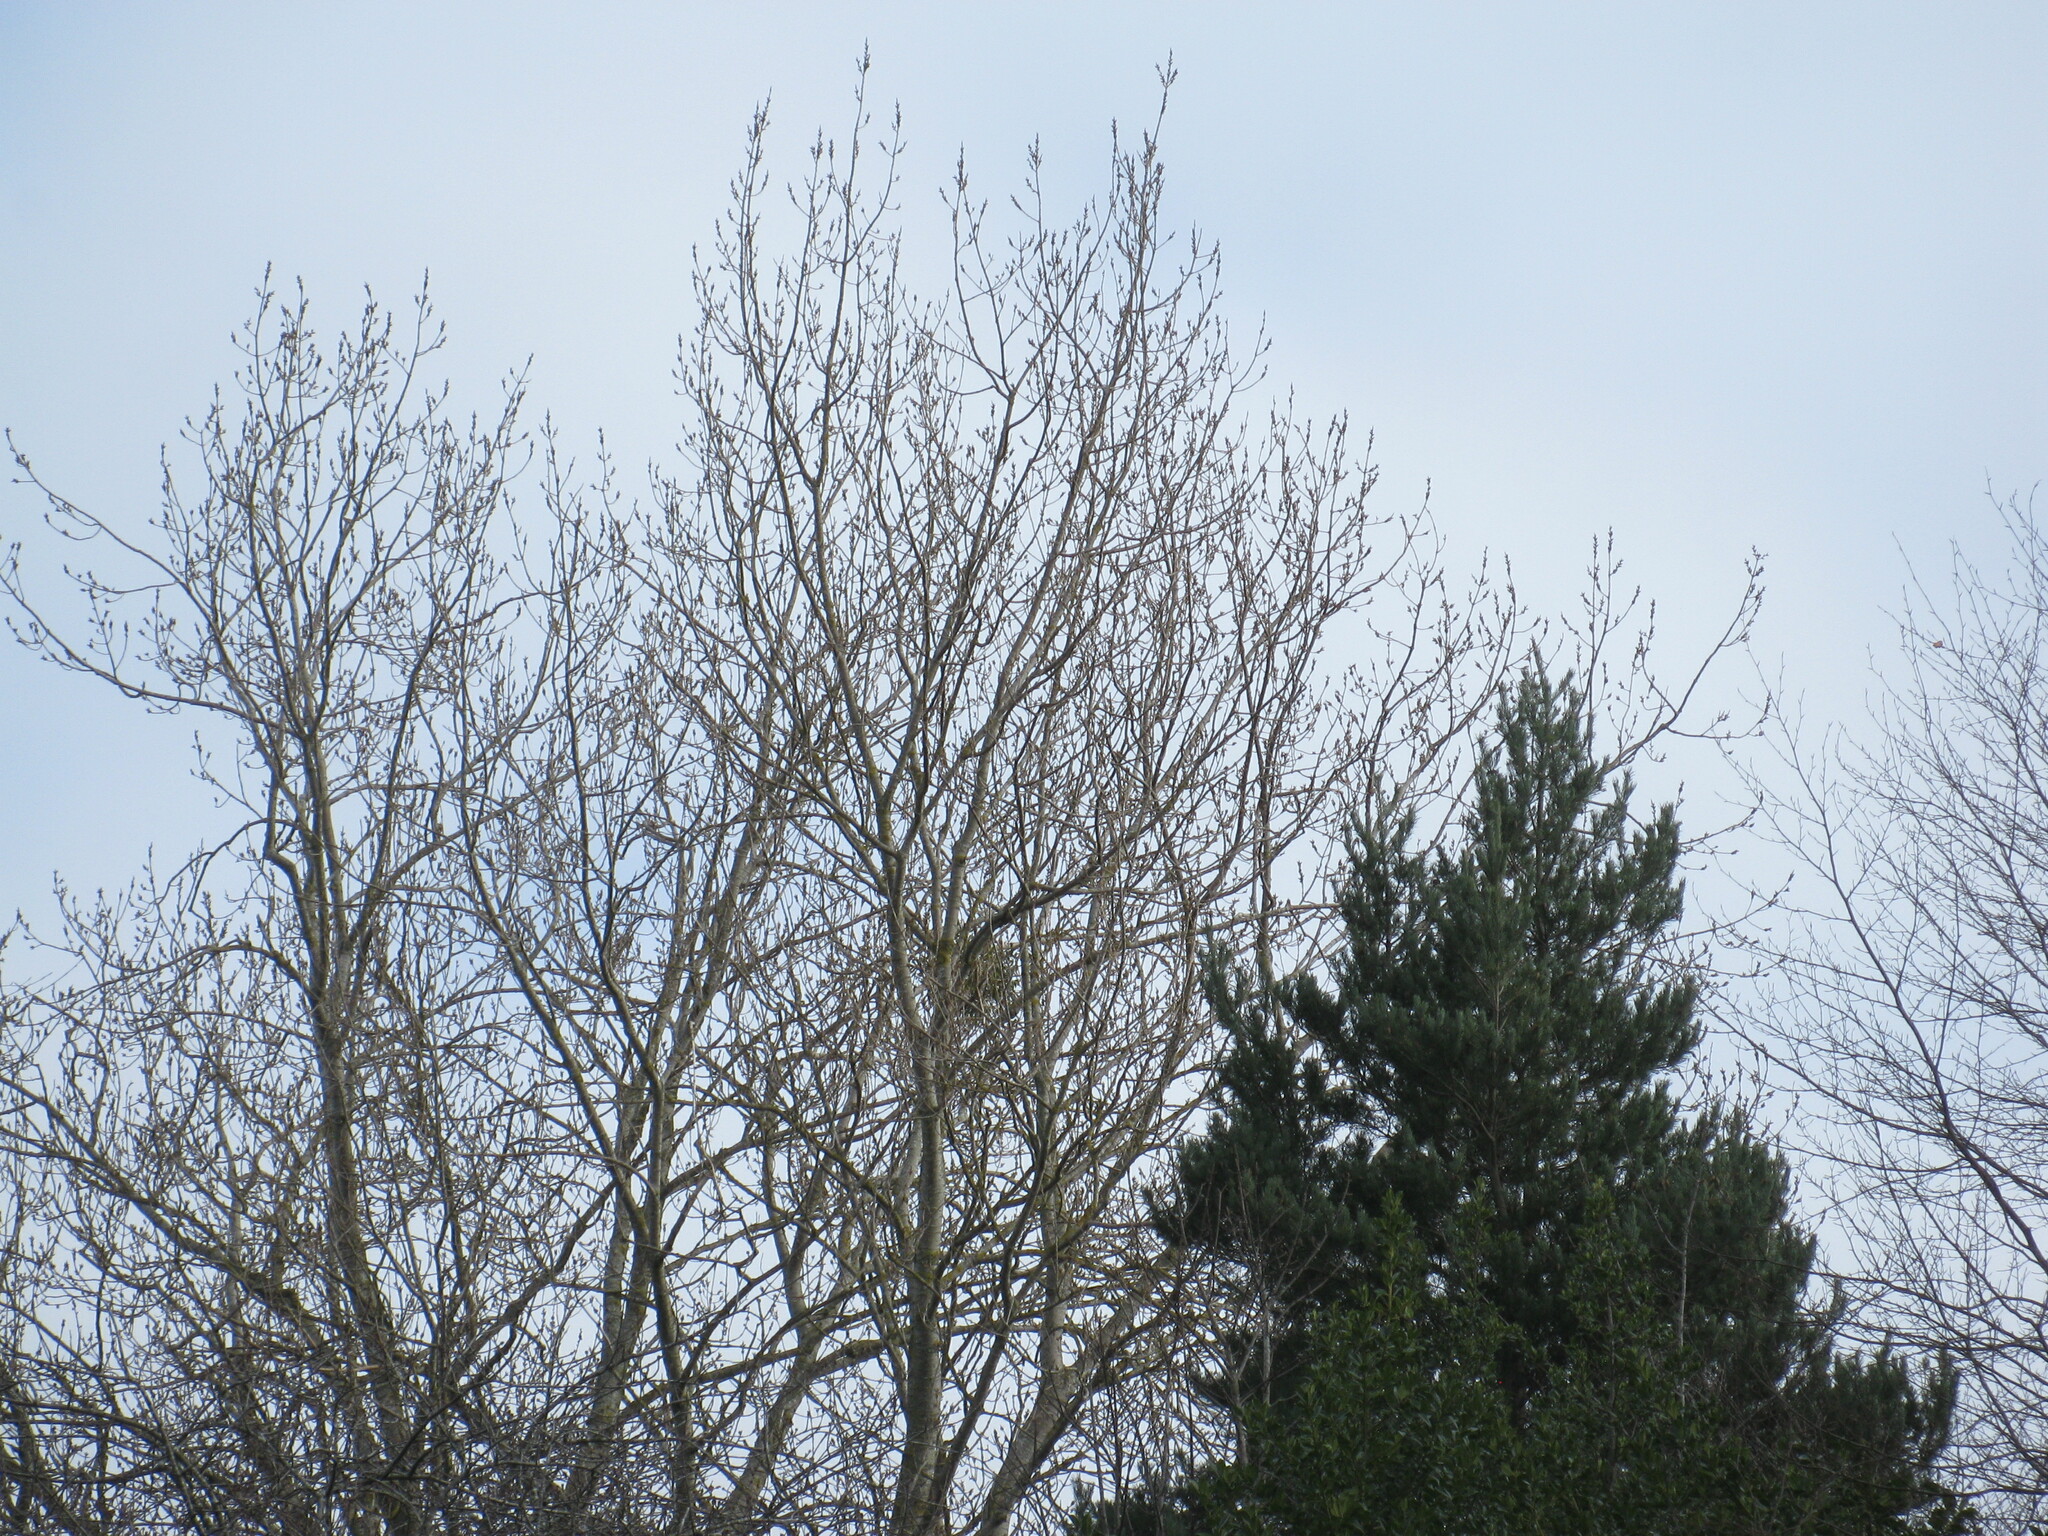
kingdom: Plantae
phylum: Tracheophyta
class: Magnoliopsida
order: Santalales
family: Viscaceae
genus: Viscum
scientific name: Viscum album
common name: Mistletoe
